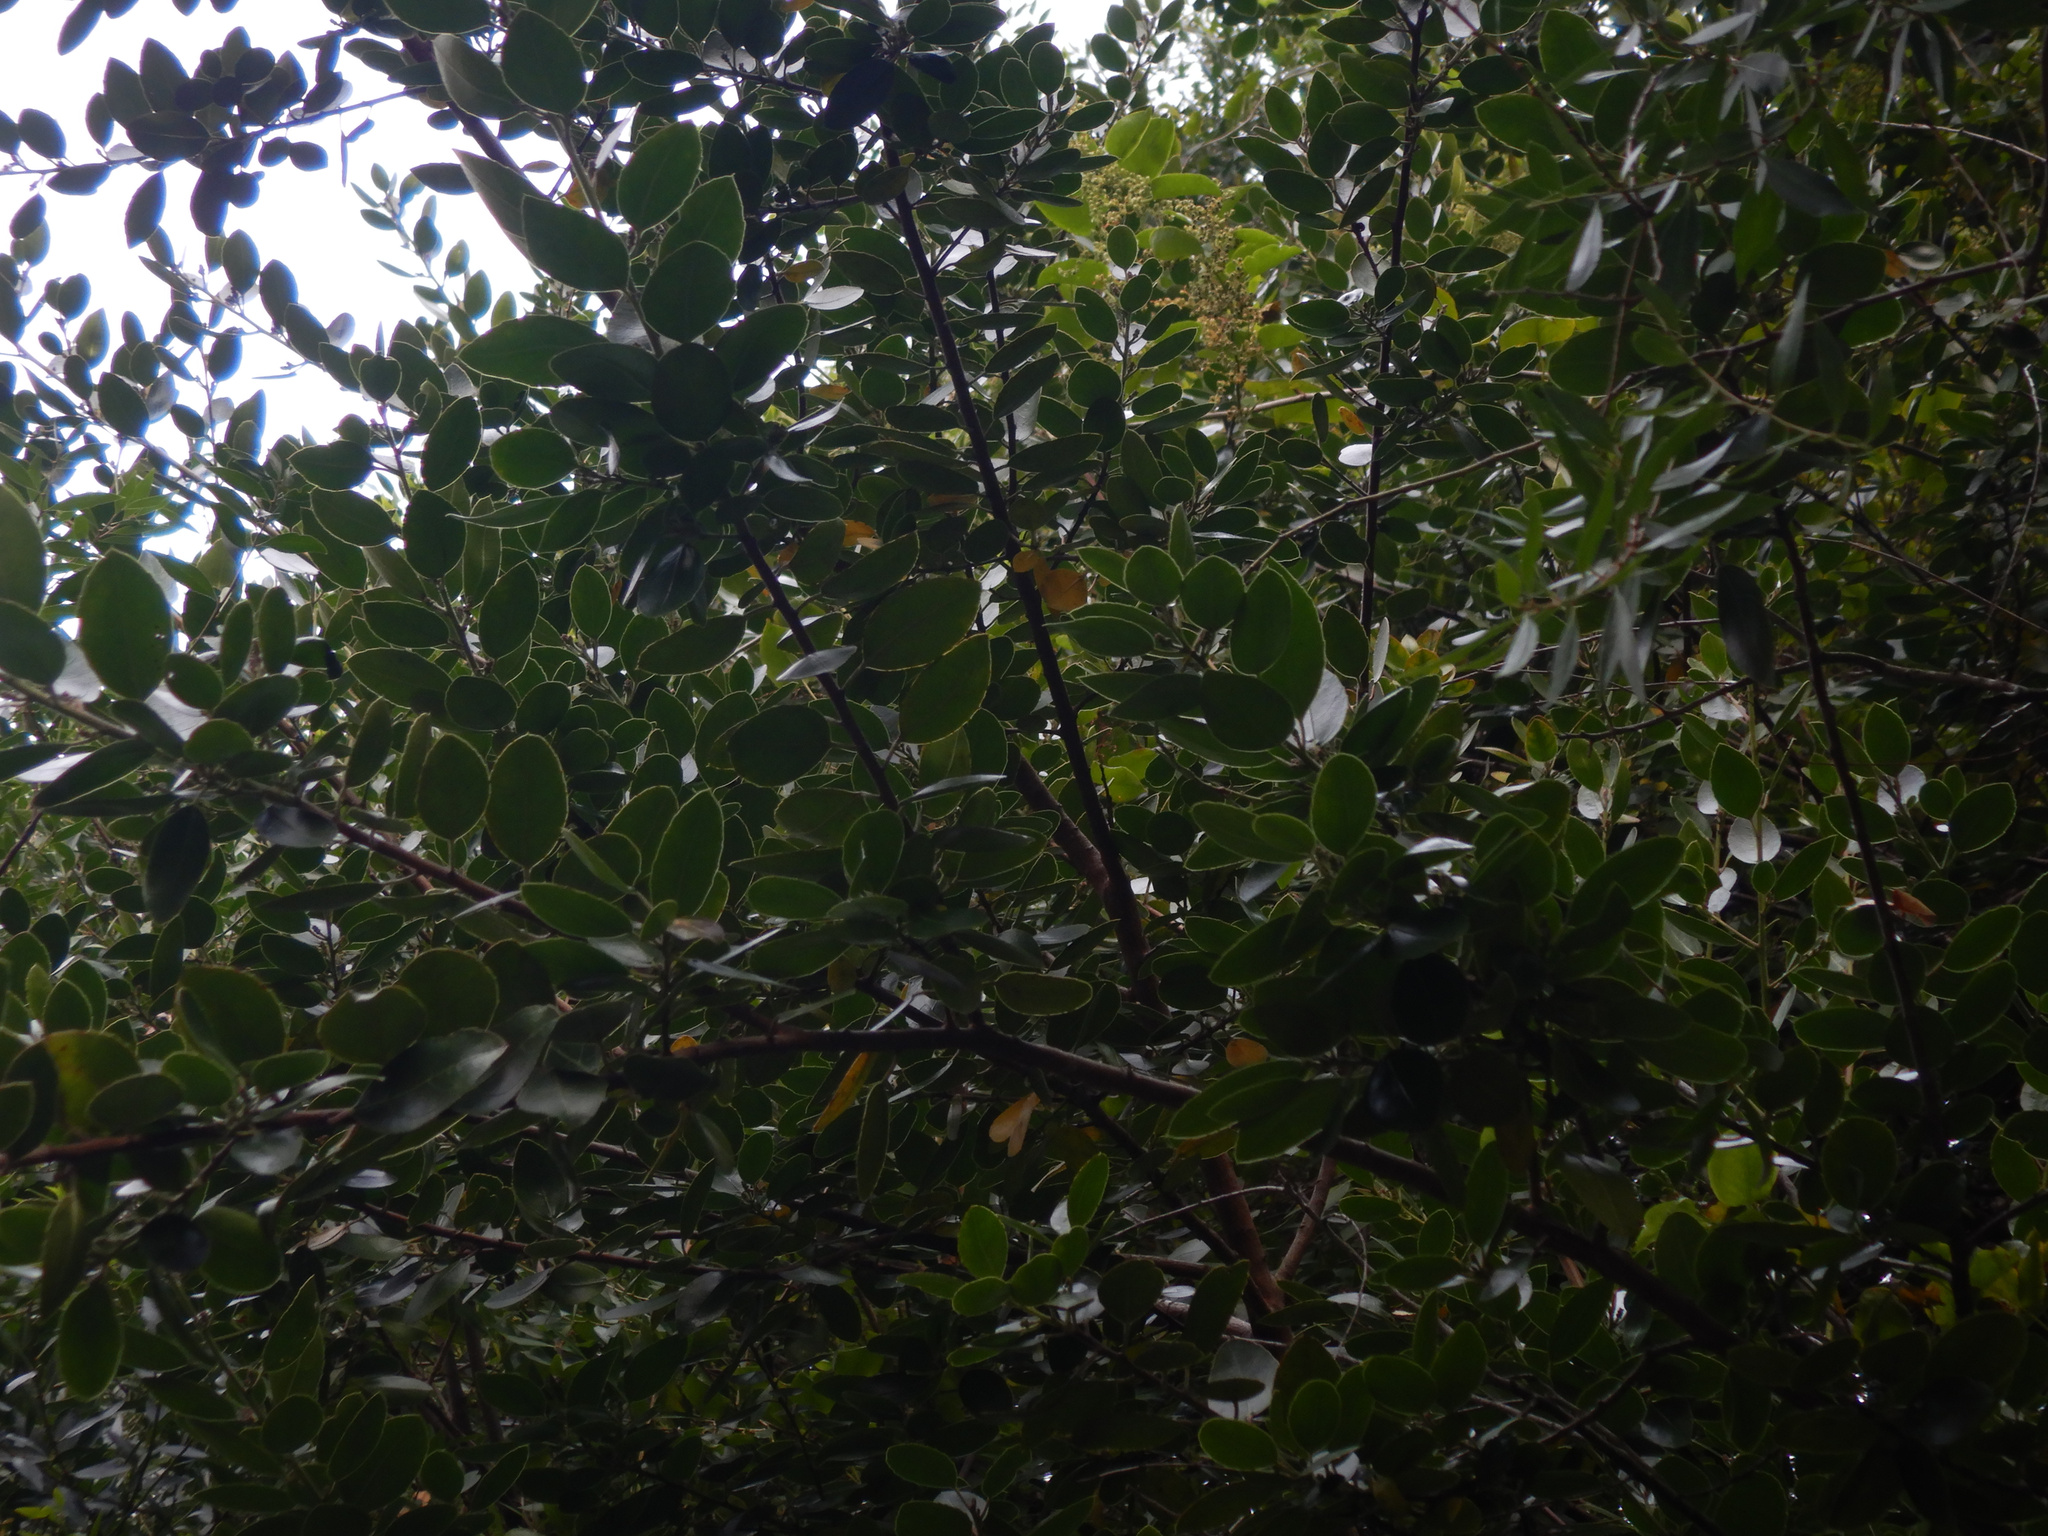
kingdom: Plantae
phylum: Tracheophyta
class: Magnoliopsida
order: Rosales
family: Rhamnaceae
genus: Rhamnus
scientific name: Rhamnus alaternus
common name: Mediterranean buckthorn
